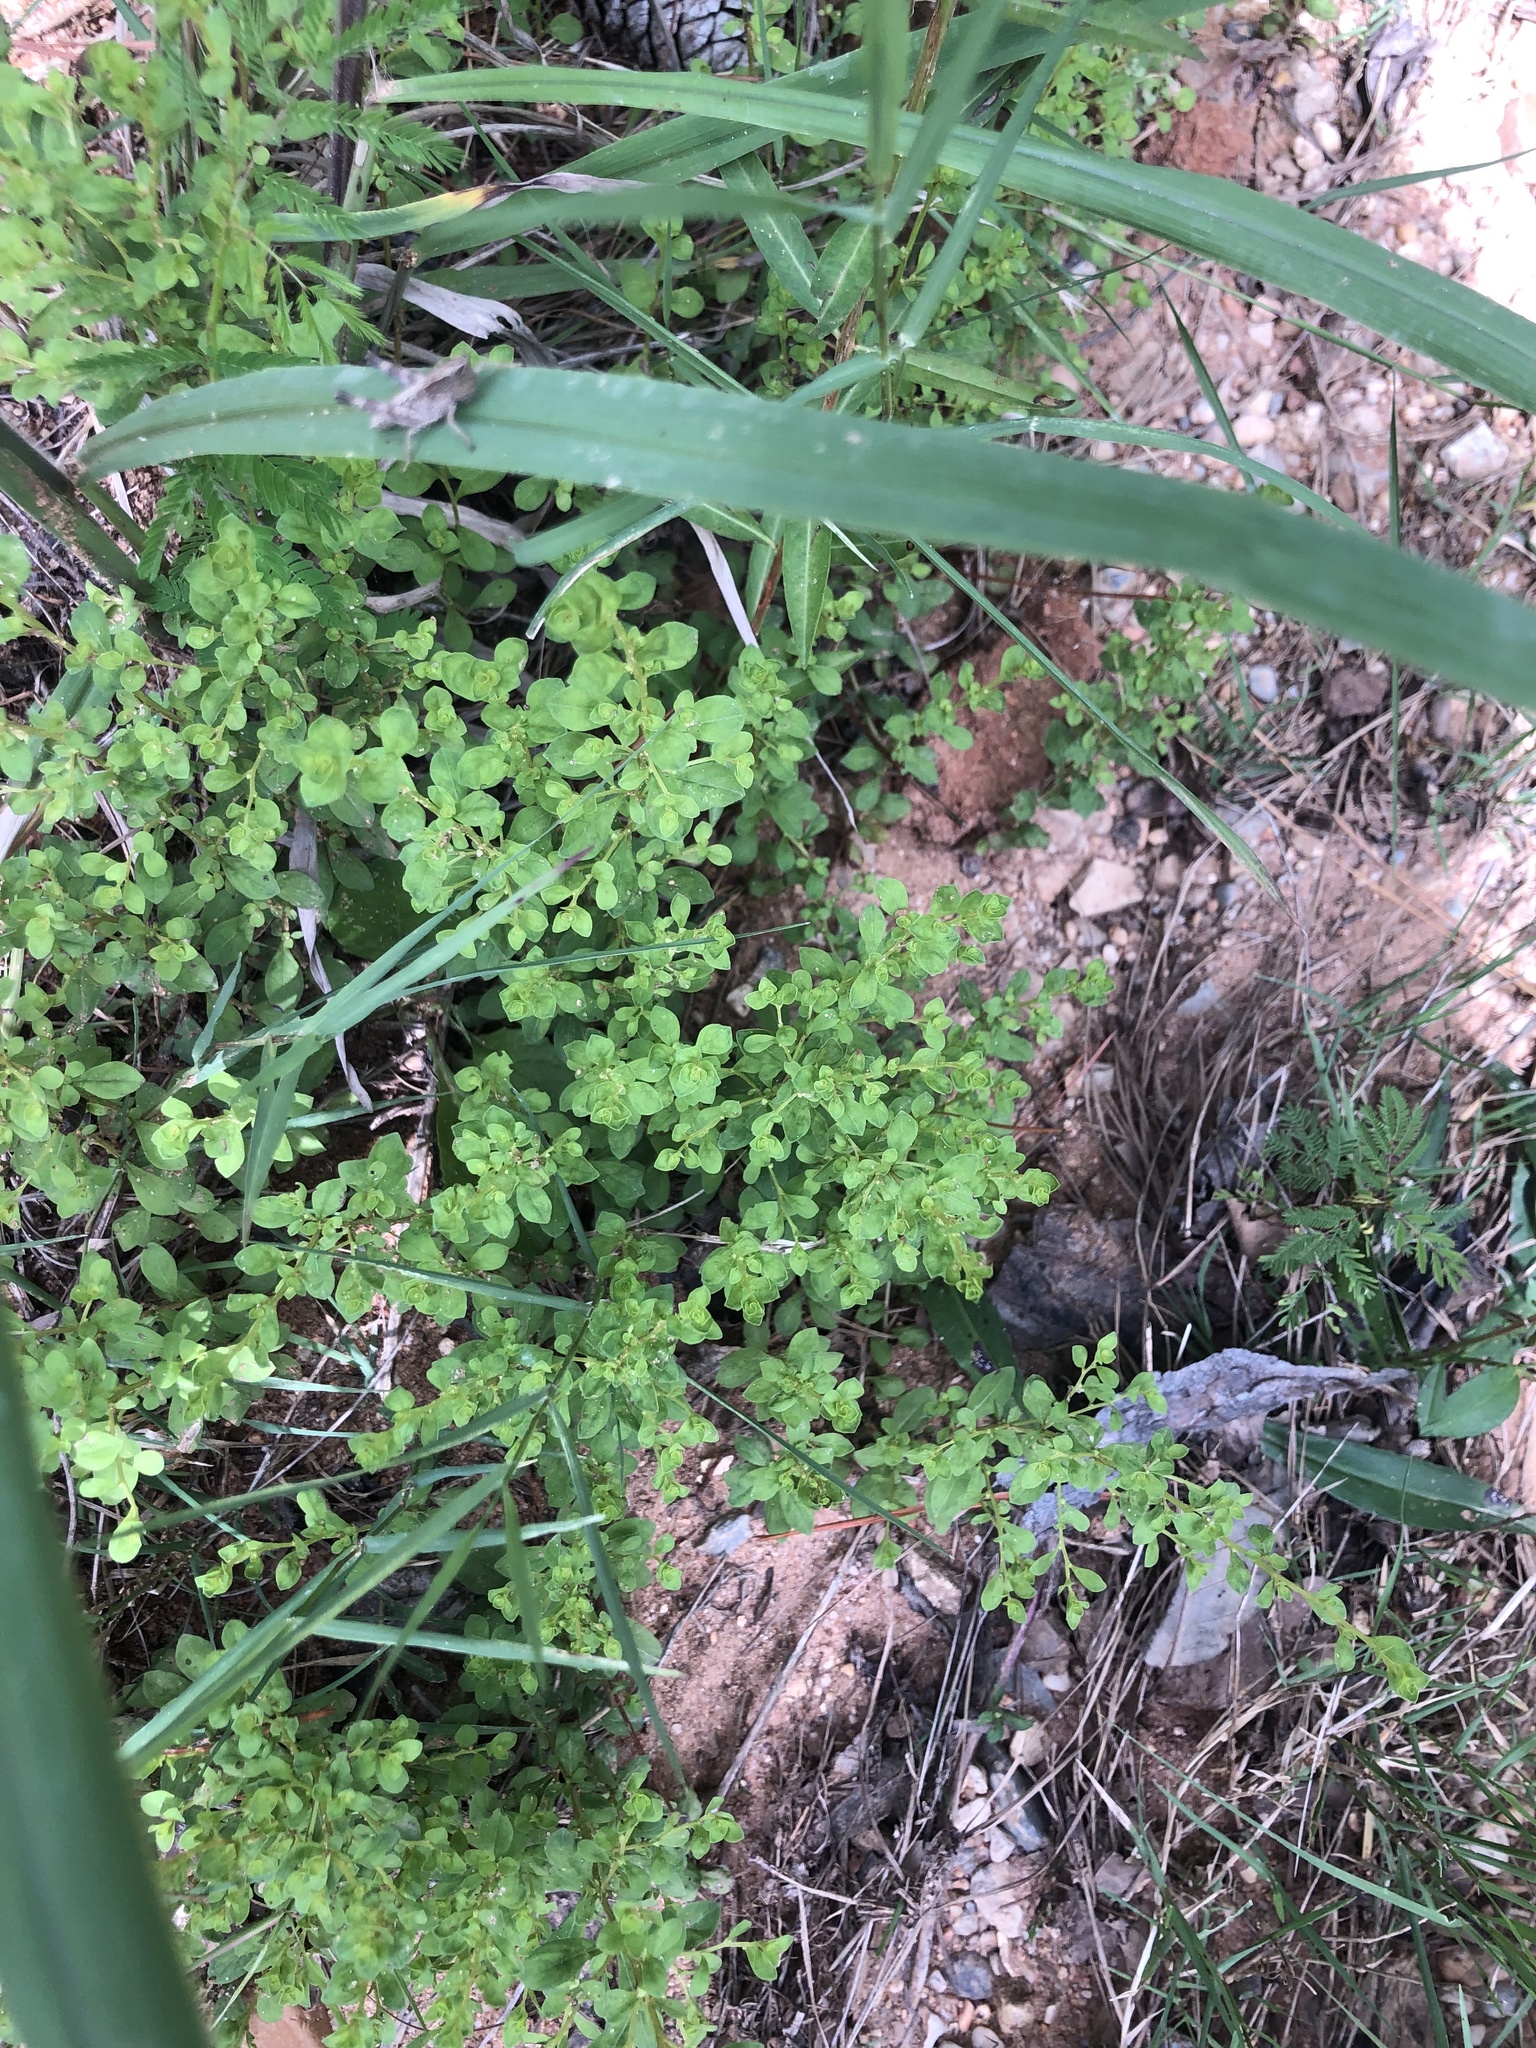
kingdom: Plantae
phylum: Tracheophyta
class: Magnoliopsida
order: Myrtales
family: Onagraceae
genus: Ludwigia
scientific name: Ludwigia microcarpa
